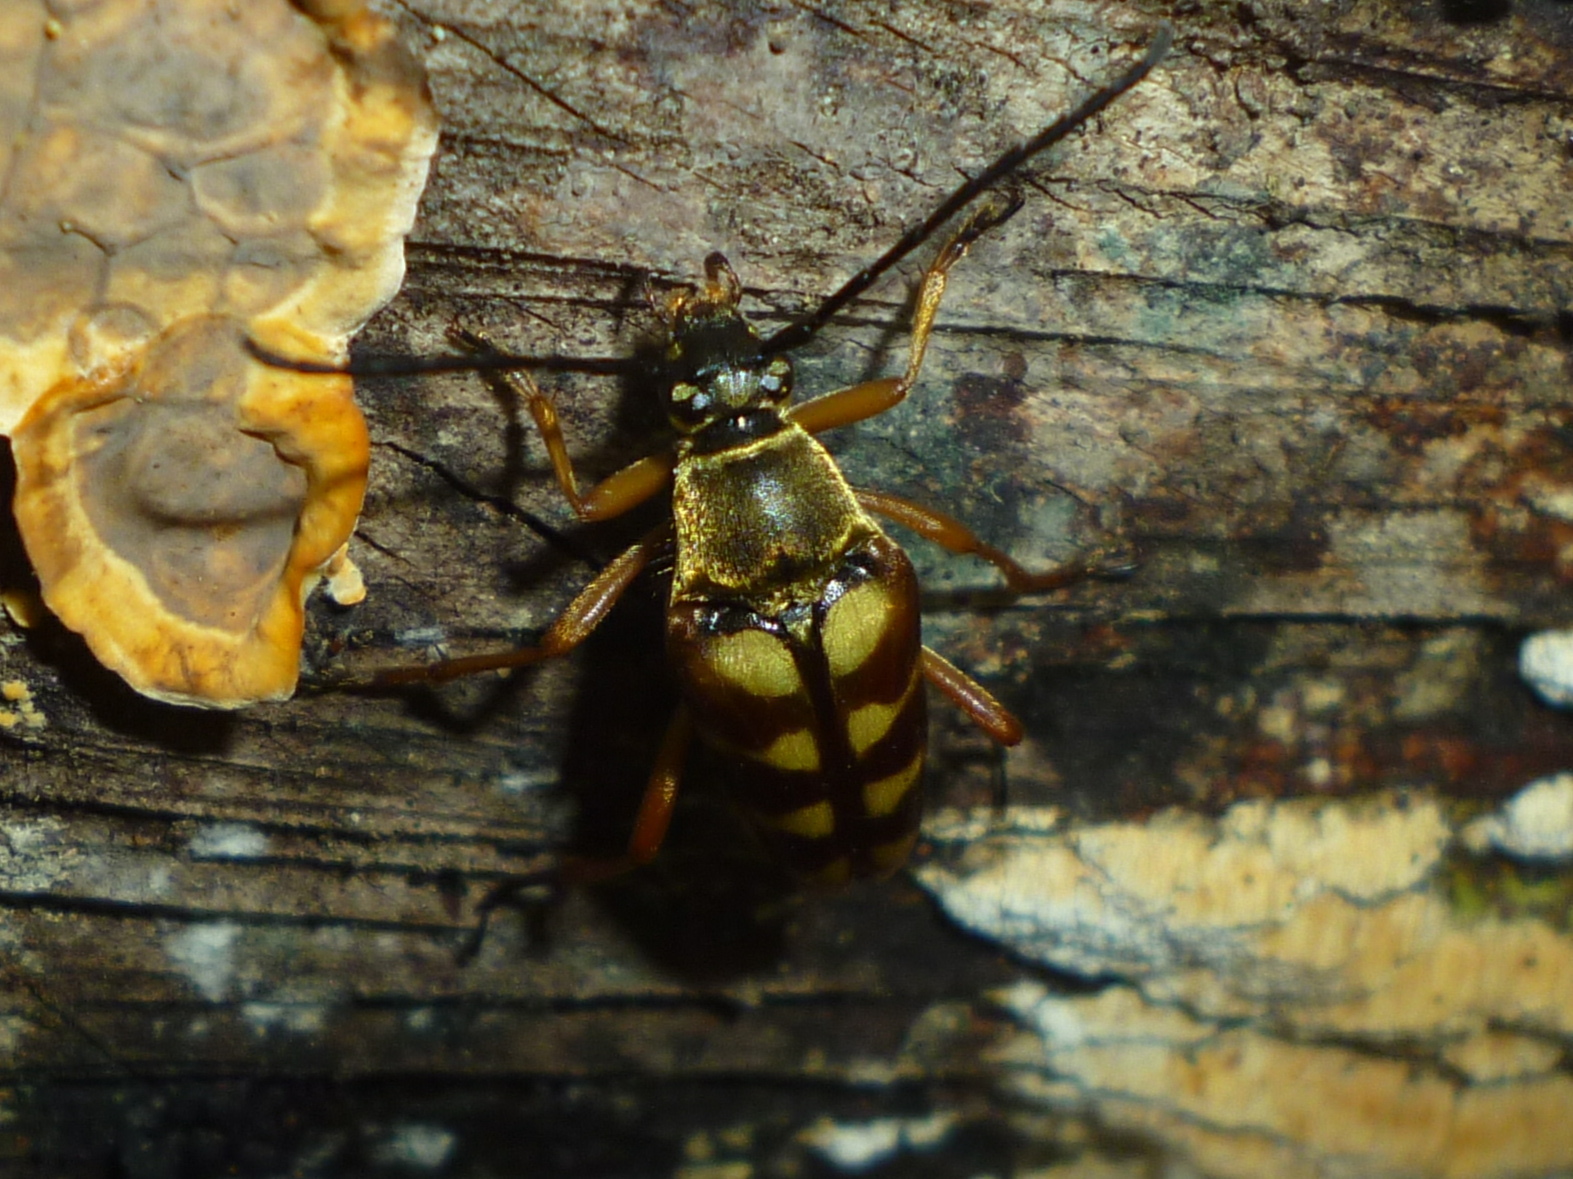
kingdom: Animalia
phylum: Arthropoda
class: Insecta
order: Coleoptera
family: Cerambycidae
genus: Typocerus
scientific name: Typocerus velutinus
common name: Banded longhorn beetle
